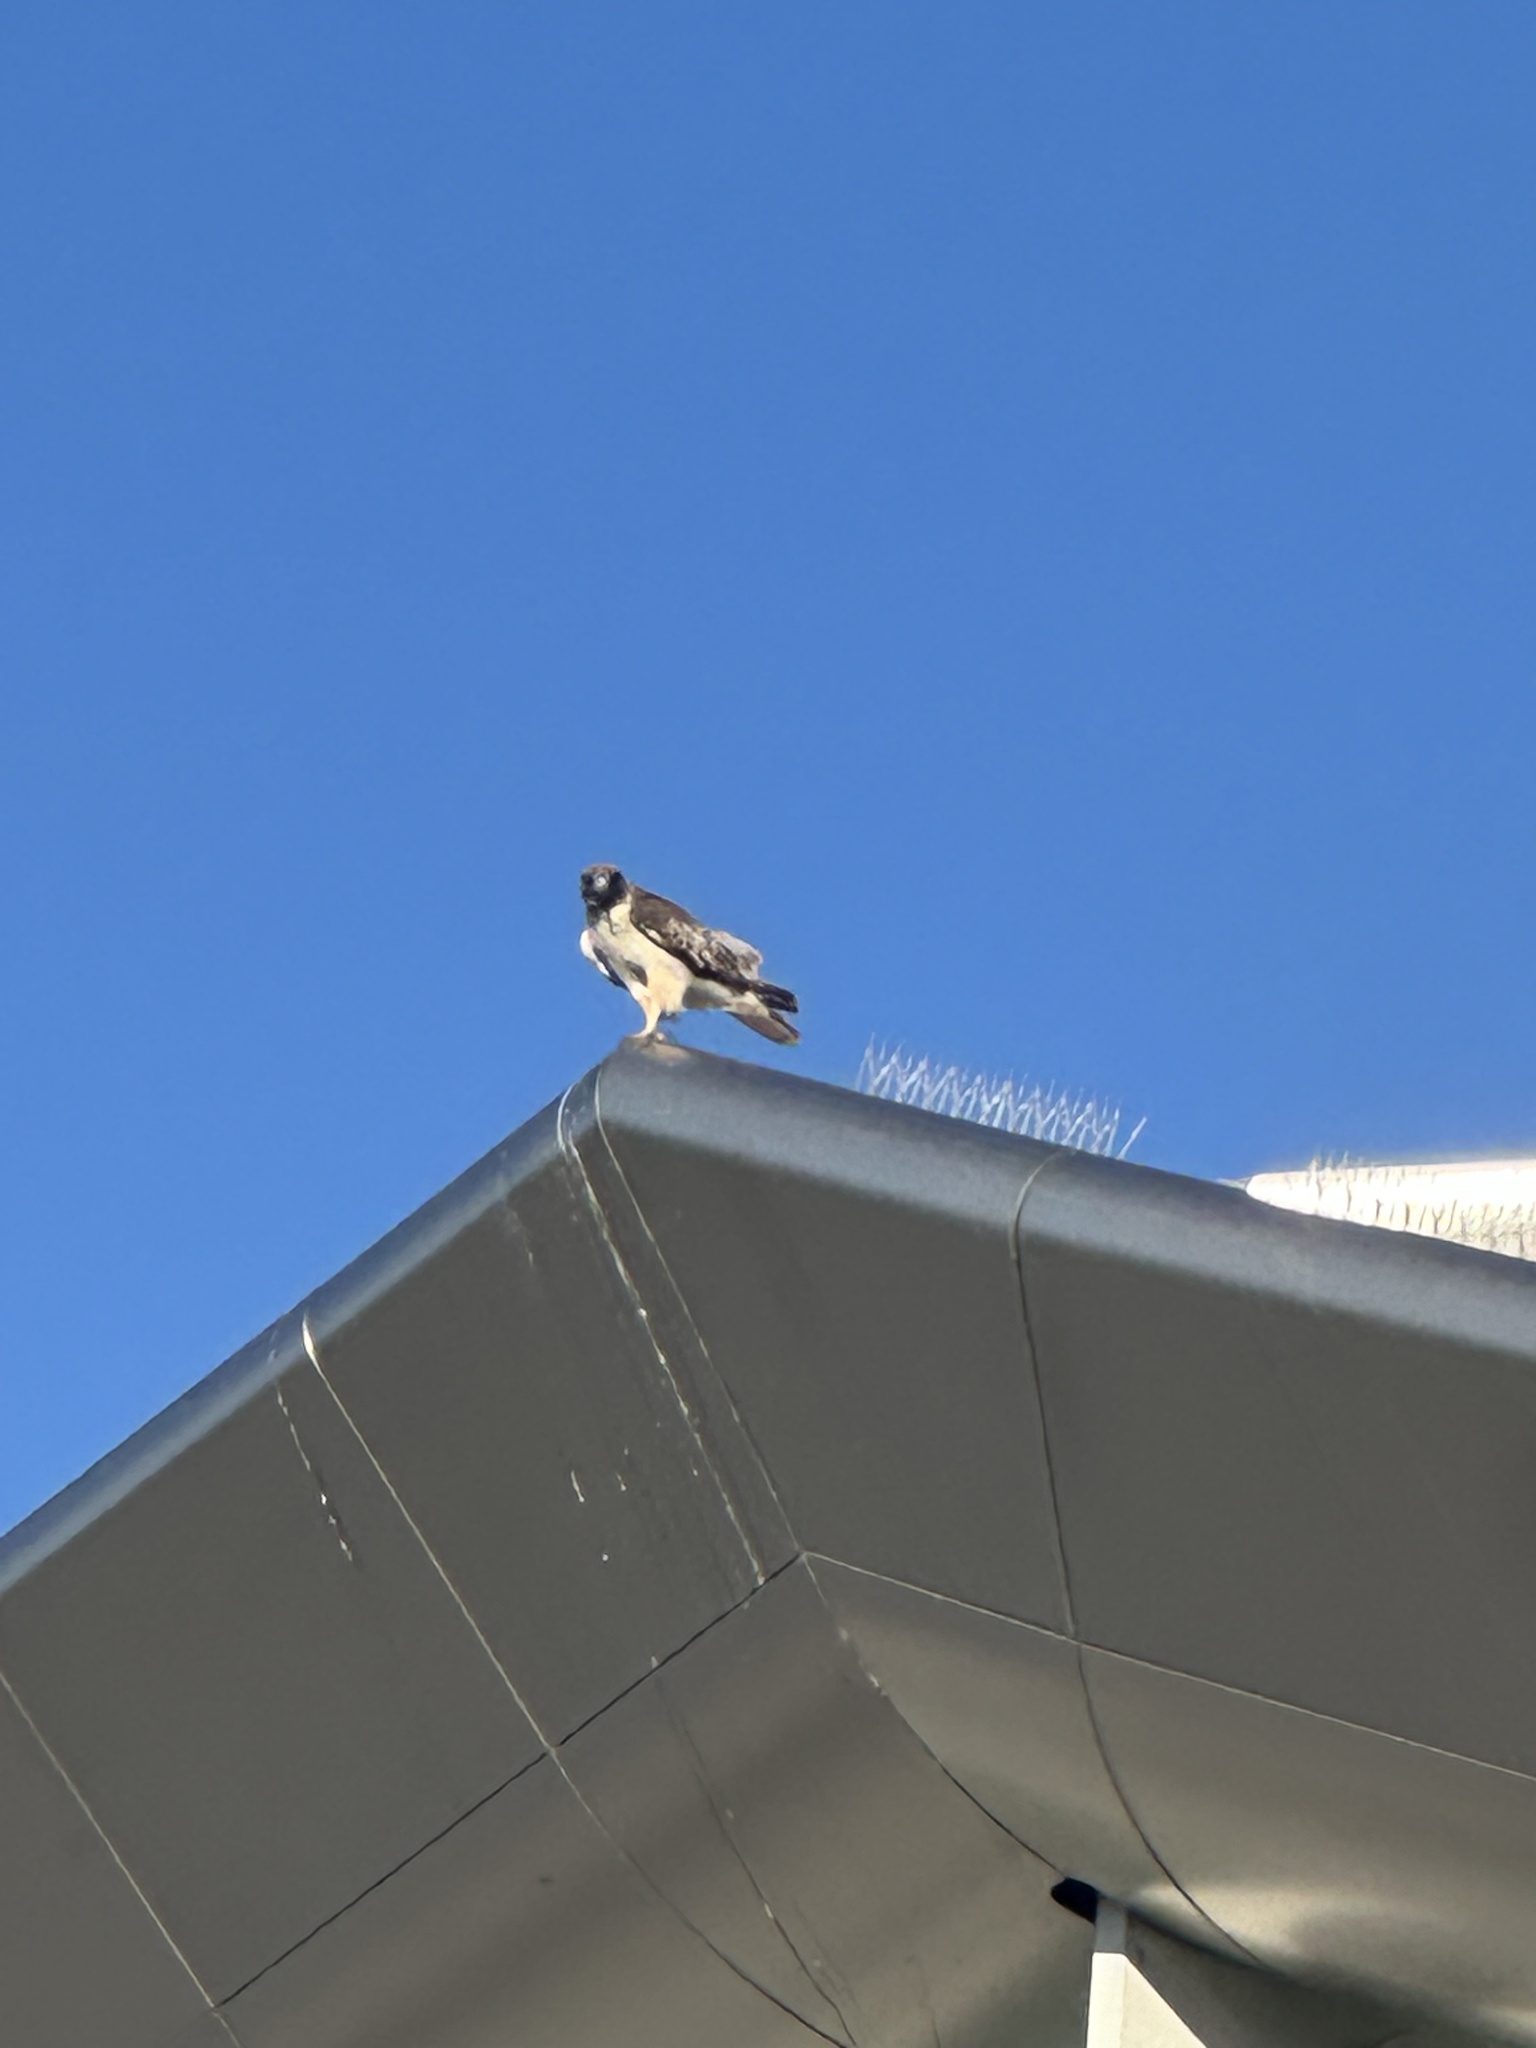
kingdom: Animalia
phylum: Chordata
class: Aves
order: Accipitriformes
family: Accipitridae
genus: Buteo
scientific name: Buteo jamaicensis
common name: Red-tailed hawk
